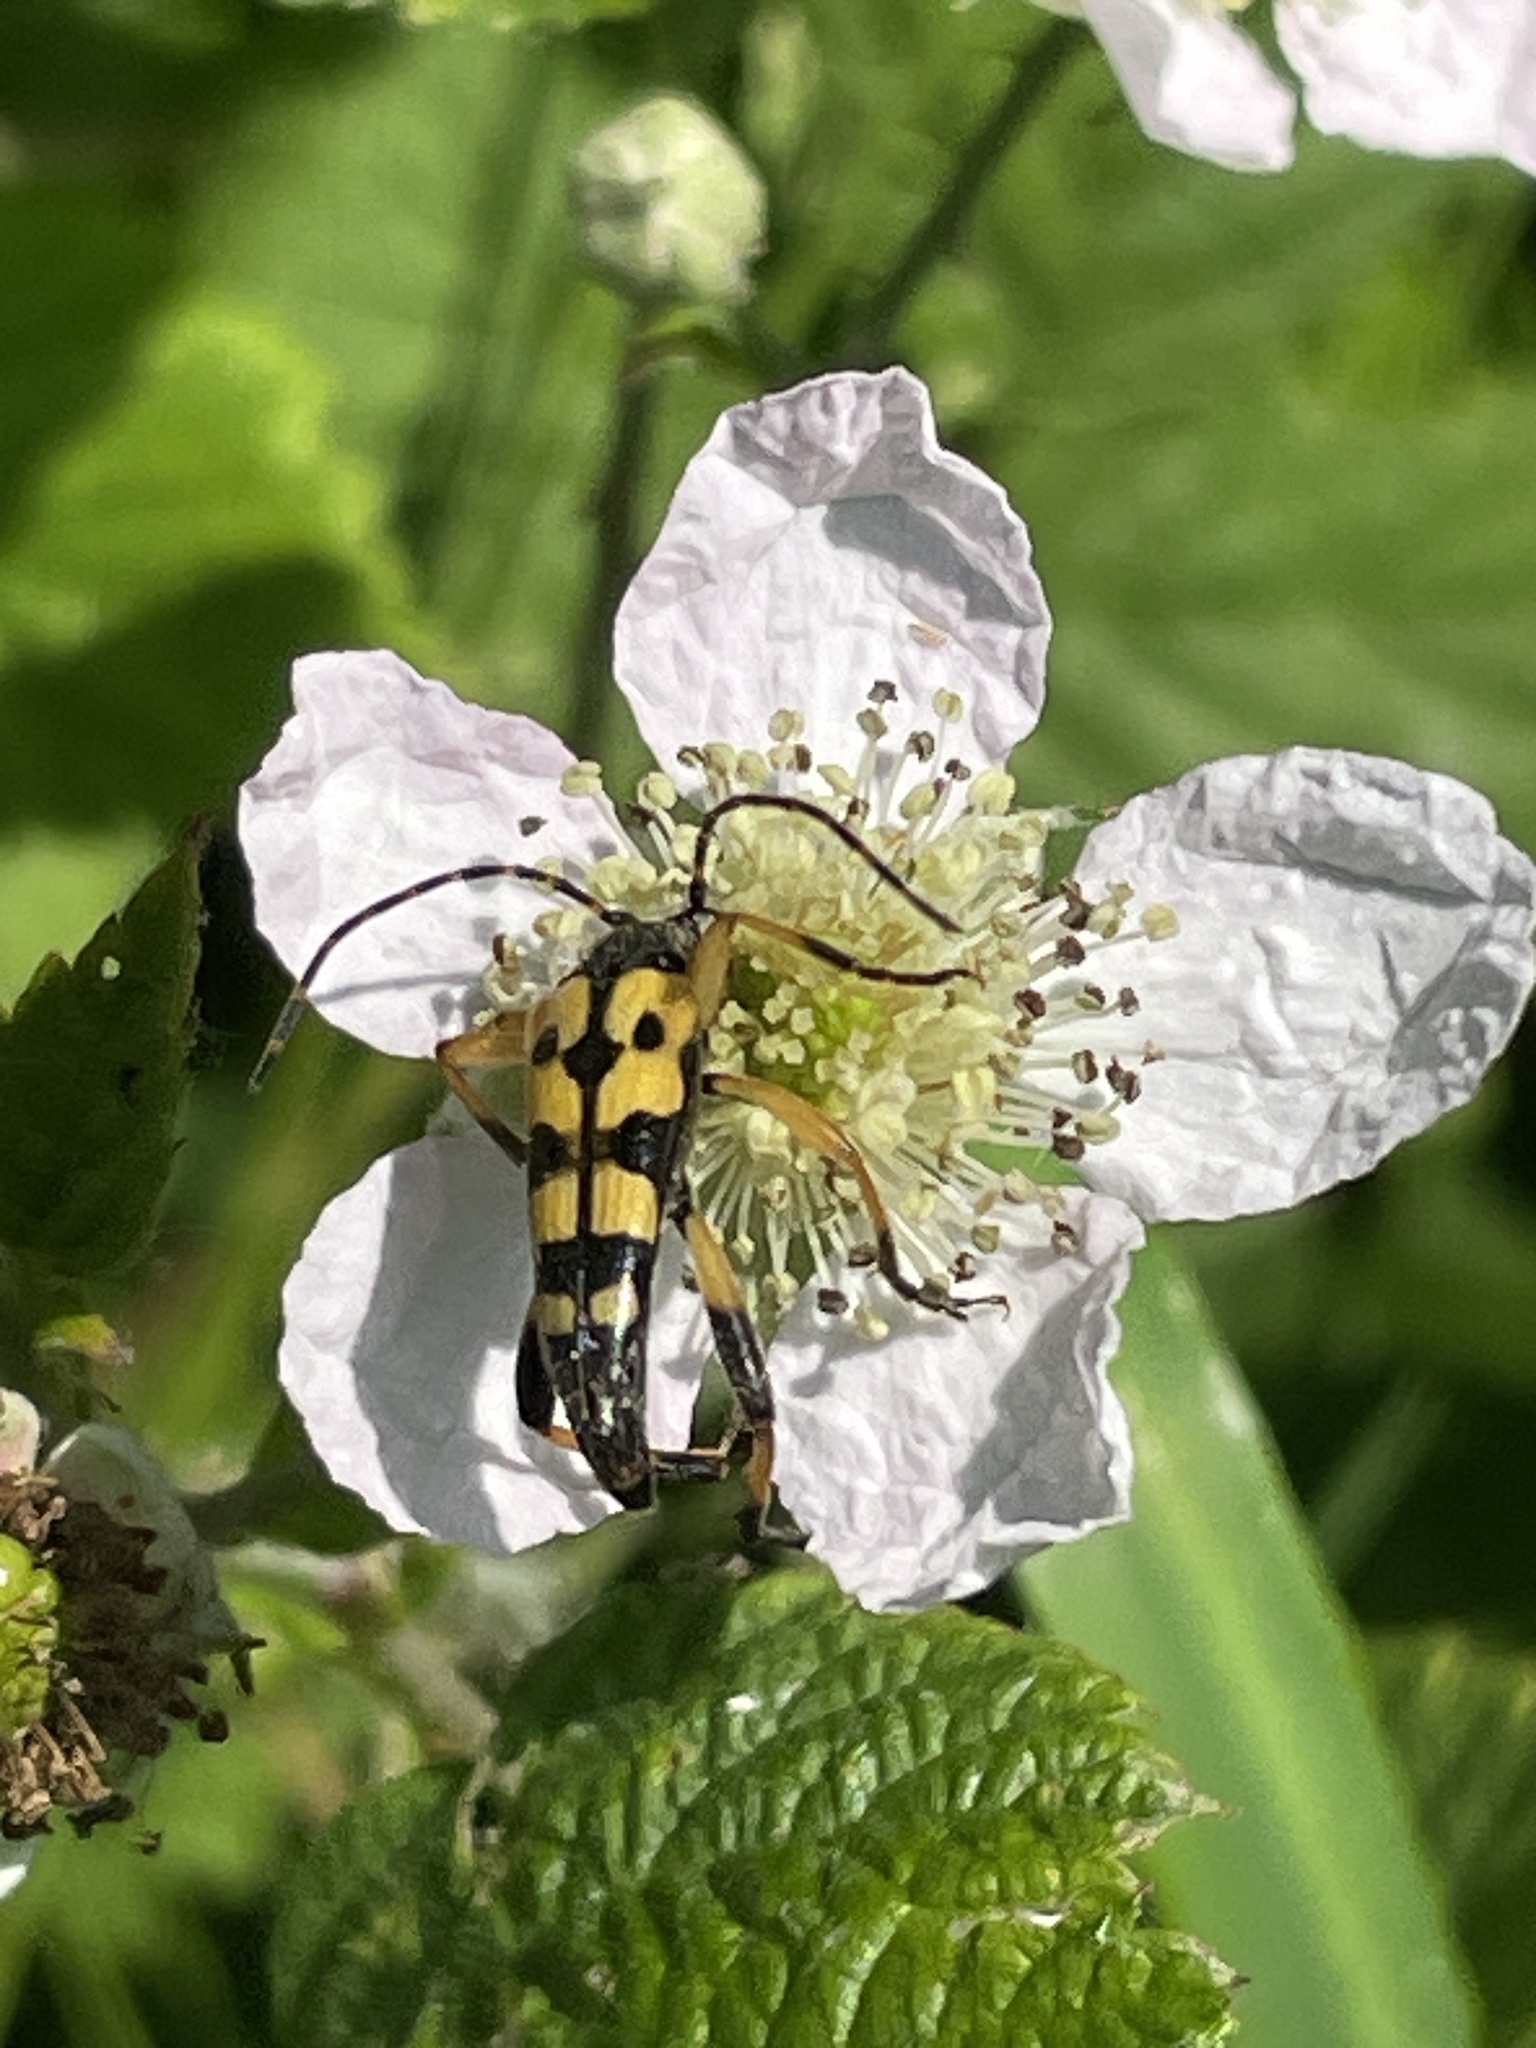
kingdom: Animalia
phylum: Arthropoda
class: Insecta
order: Coleoptera
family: Cerambycidae
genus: Rutpela
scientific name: Rutpela maculata
